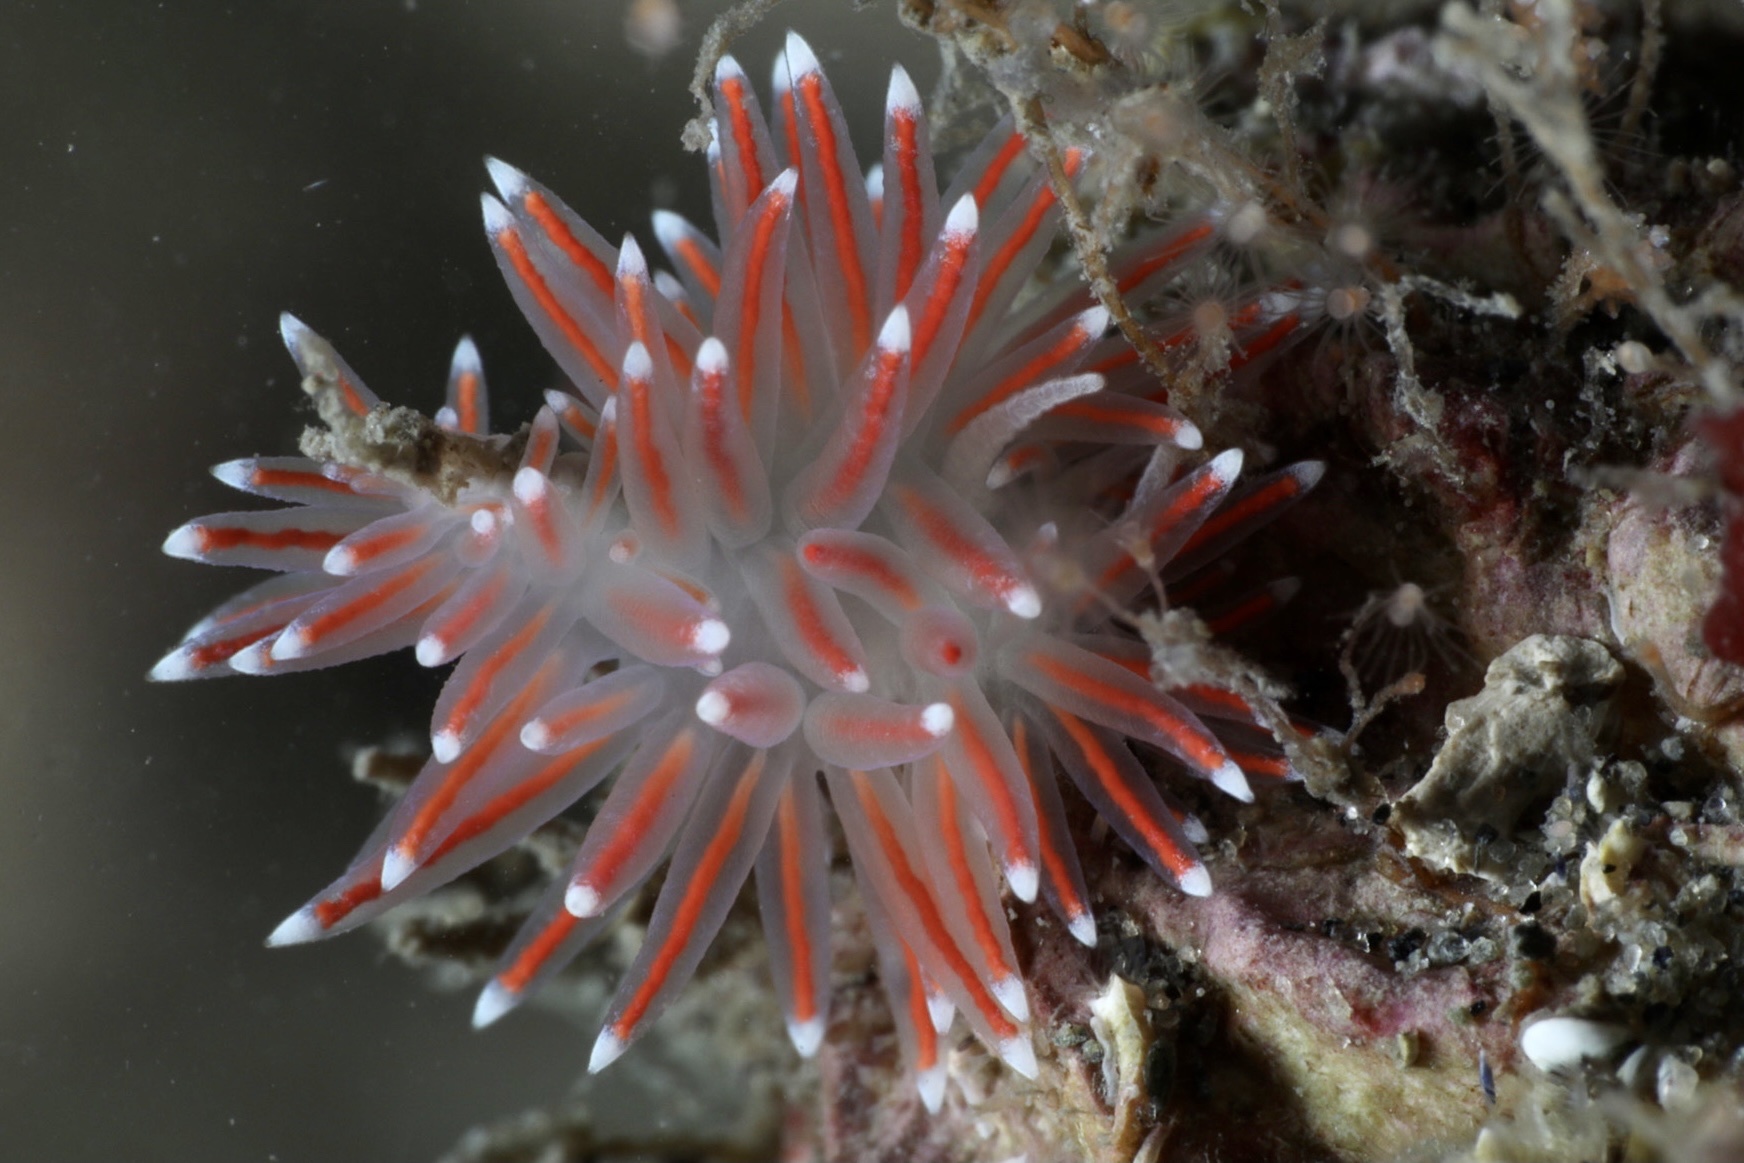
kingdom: Animalia
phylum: Mollusca
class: Gastropoda
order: Nudibranchia
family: Flabellinidae
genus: Carronella
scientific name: Carronella pellucida
